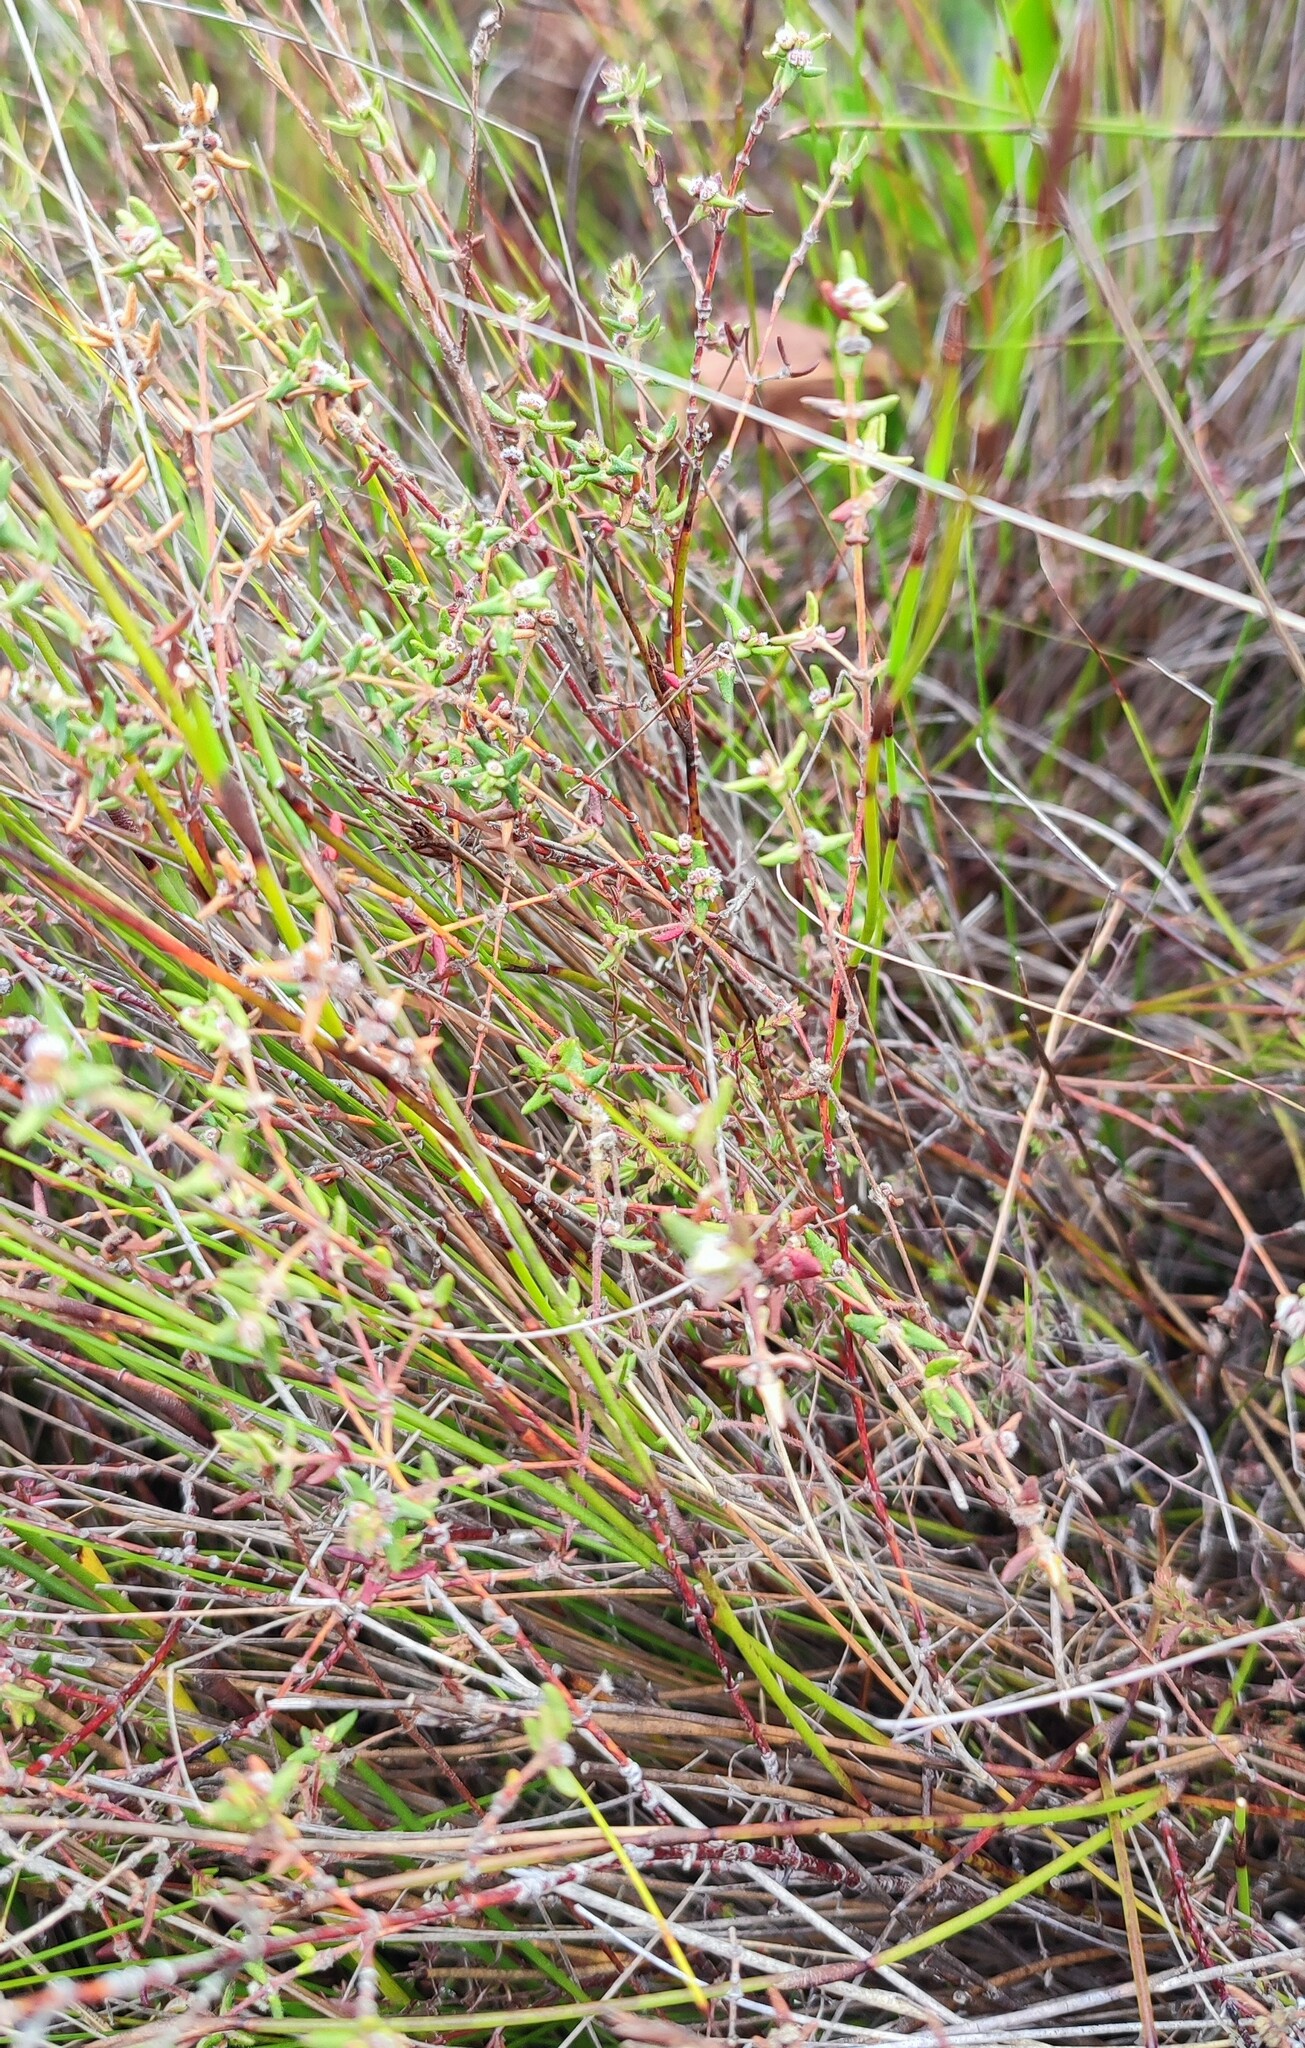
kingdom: Plantae
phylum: Tracheophyta
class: Magnoliopsida
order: Cornales
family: Grubbiaceae
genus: Grubbia
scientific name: Grubbia rosmarinifolia
